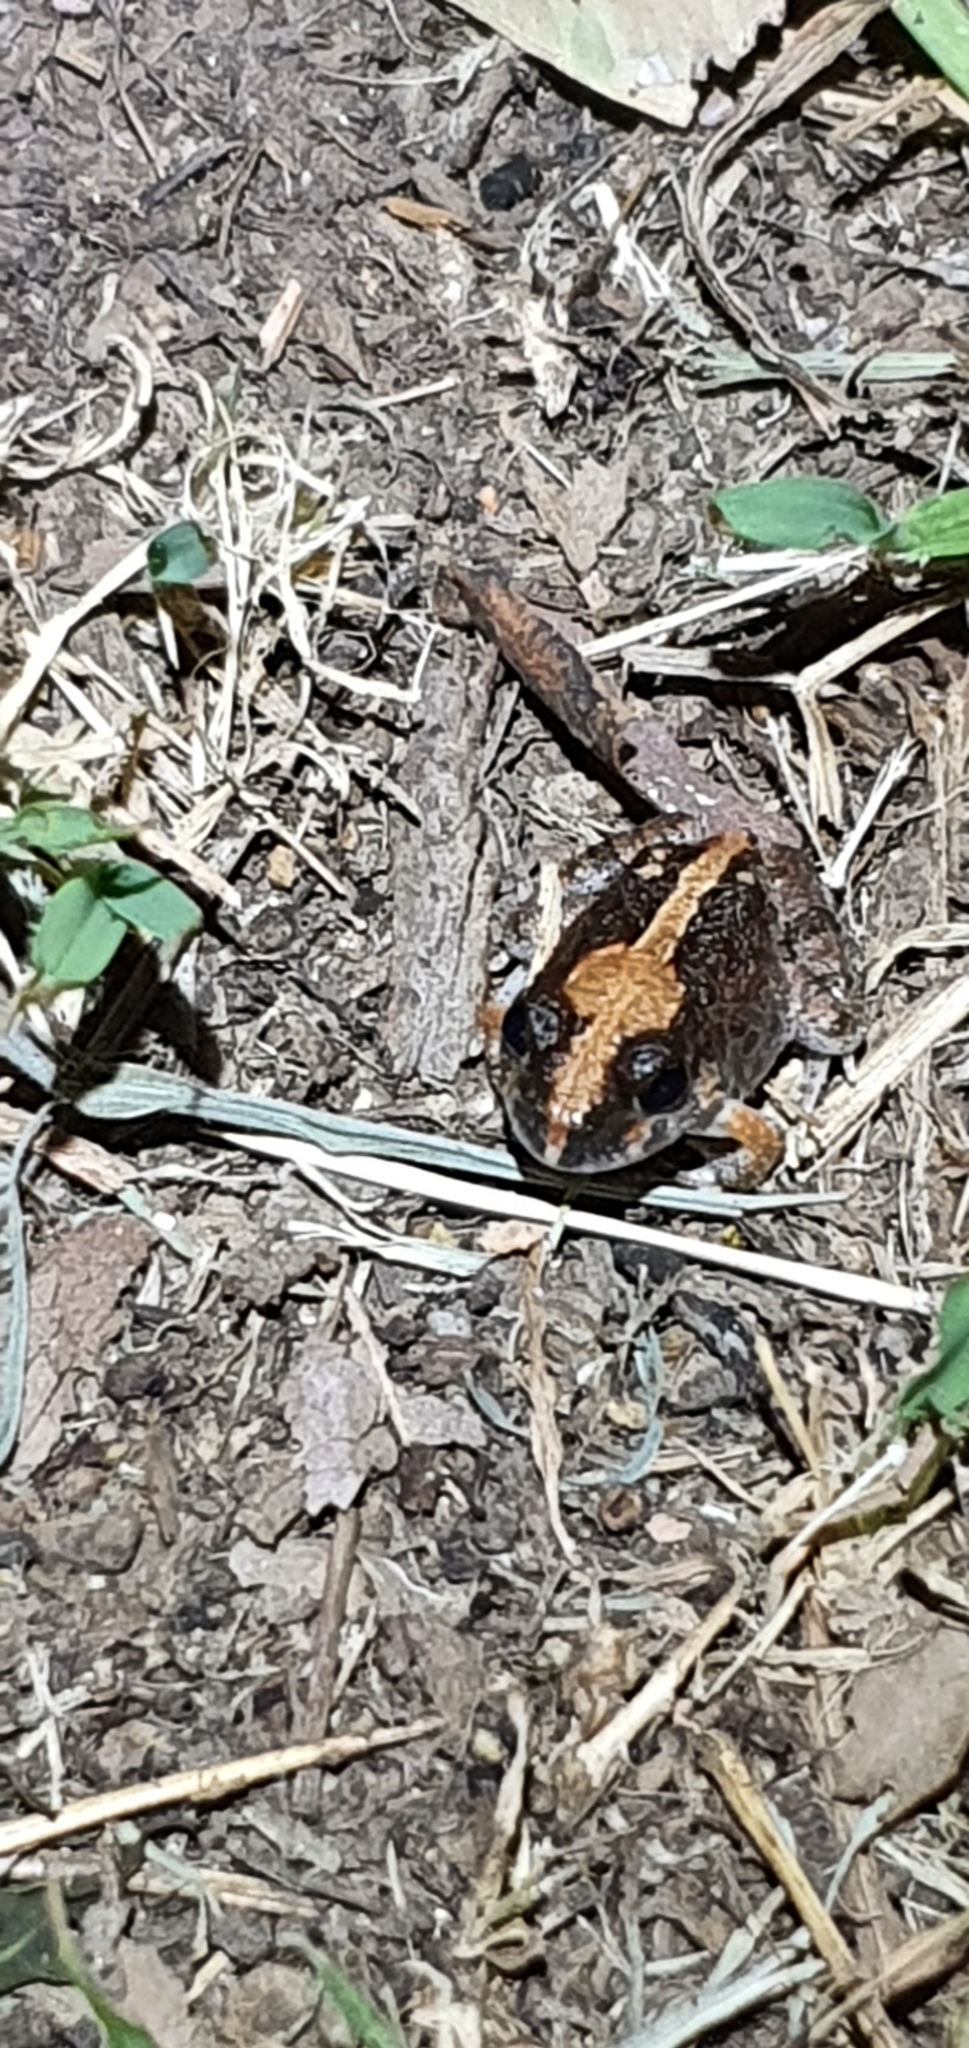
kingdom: Animalia
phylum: Chordata
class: Amphibia
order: Anura
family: Limnodynastidae
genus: Platyplectrum
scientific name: Platyplectrum ornatum
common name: Ornate burrowing frog
